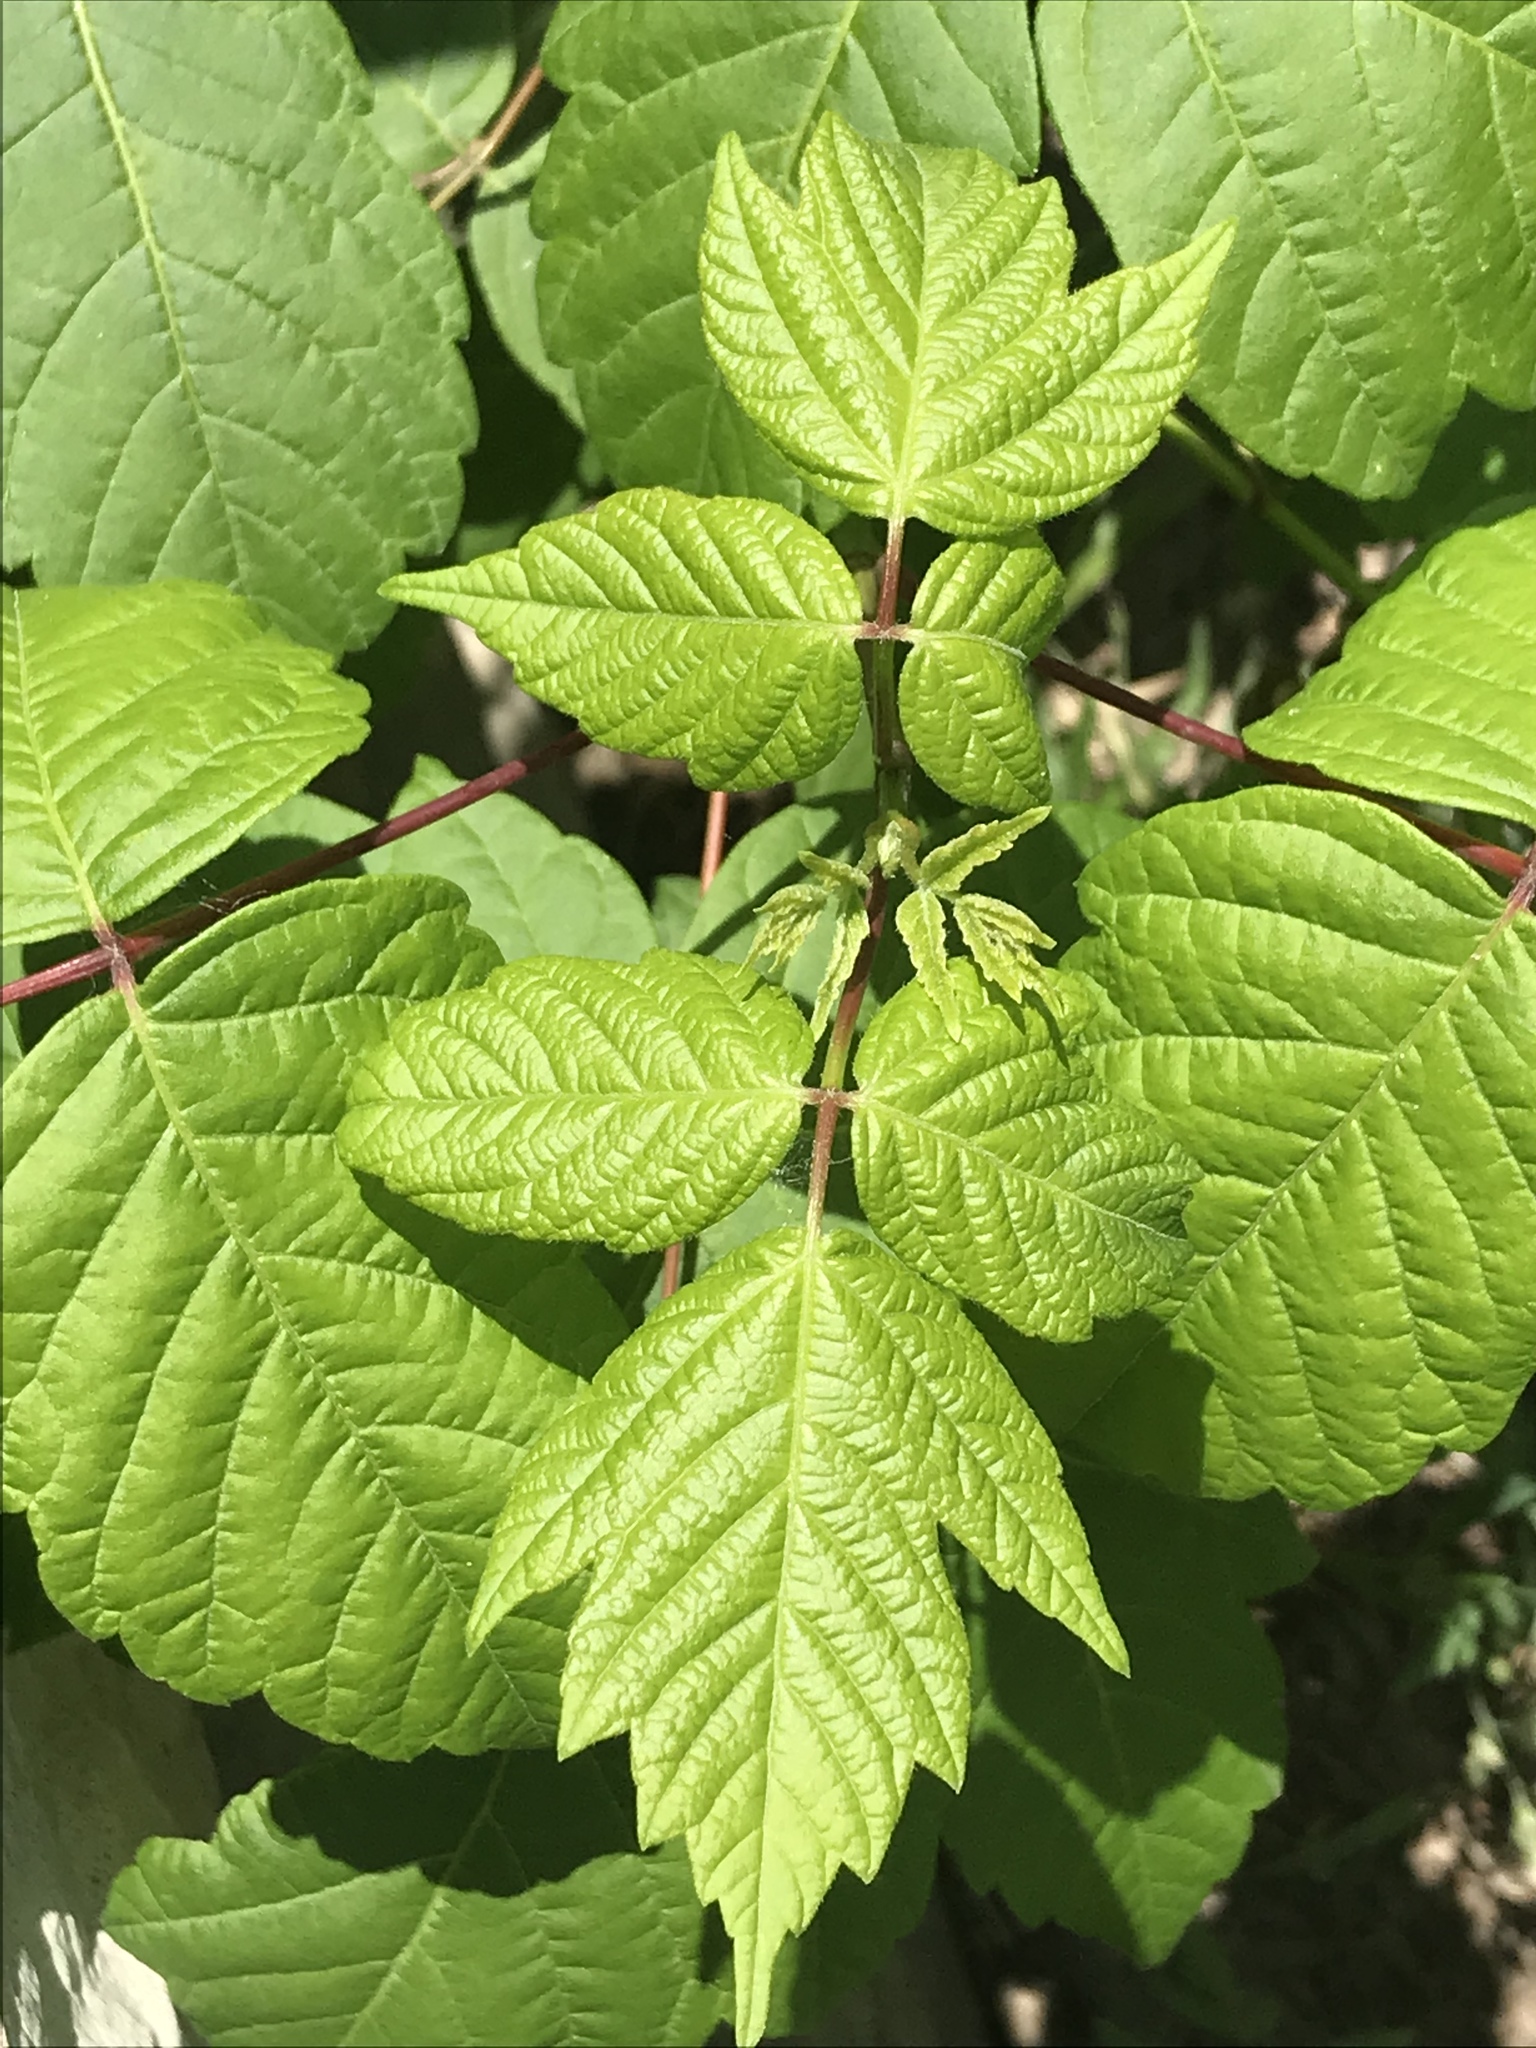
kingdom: Plantae
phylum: Tracheophyta
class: Magnoliopsida
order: Sapindales
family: Sapindaceae
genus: Acer
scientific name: Acer negundo
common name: Ashleaf maple
